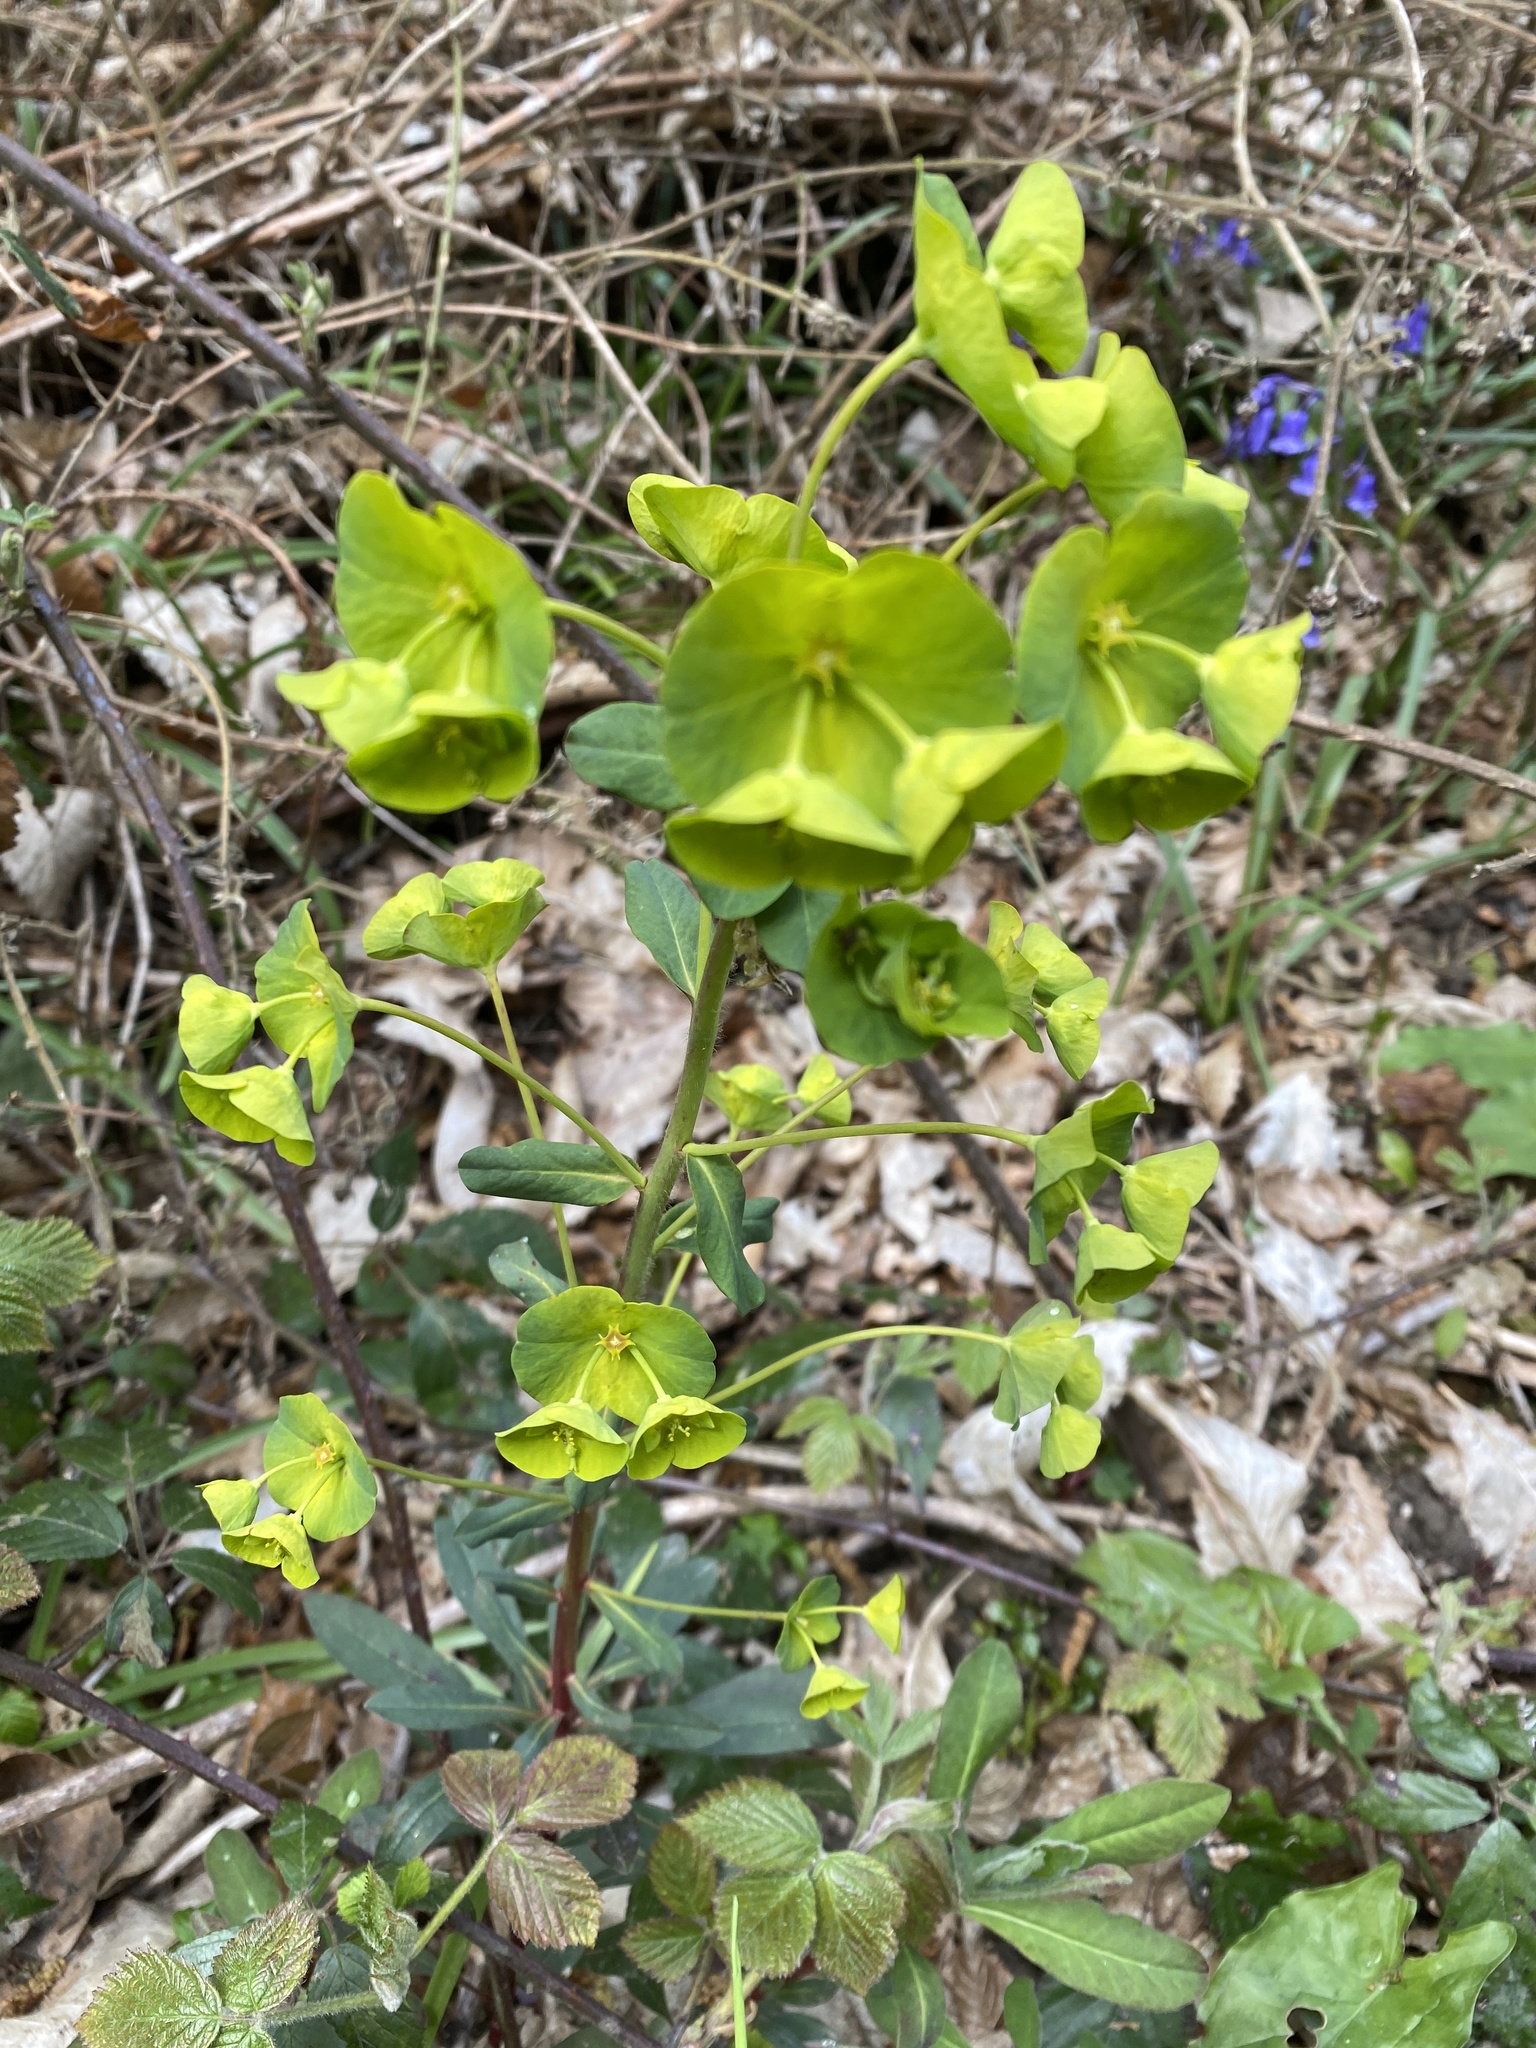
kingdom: Plantae
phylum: Tracheophyta
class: Magnoliopsida
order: Malpighiales
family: Euphorbiaceae
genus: Euphorbia
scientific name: Euphorbia amygdaloides
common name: Wood spurge
